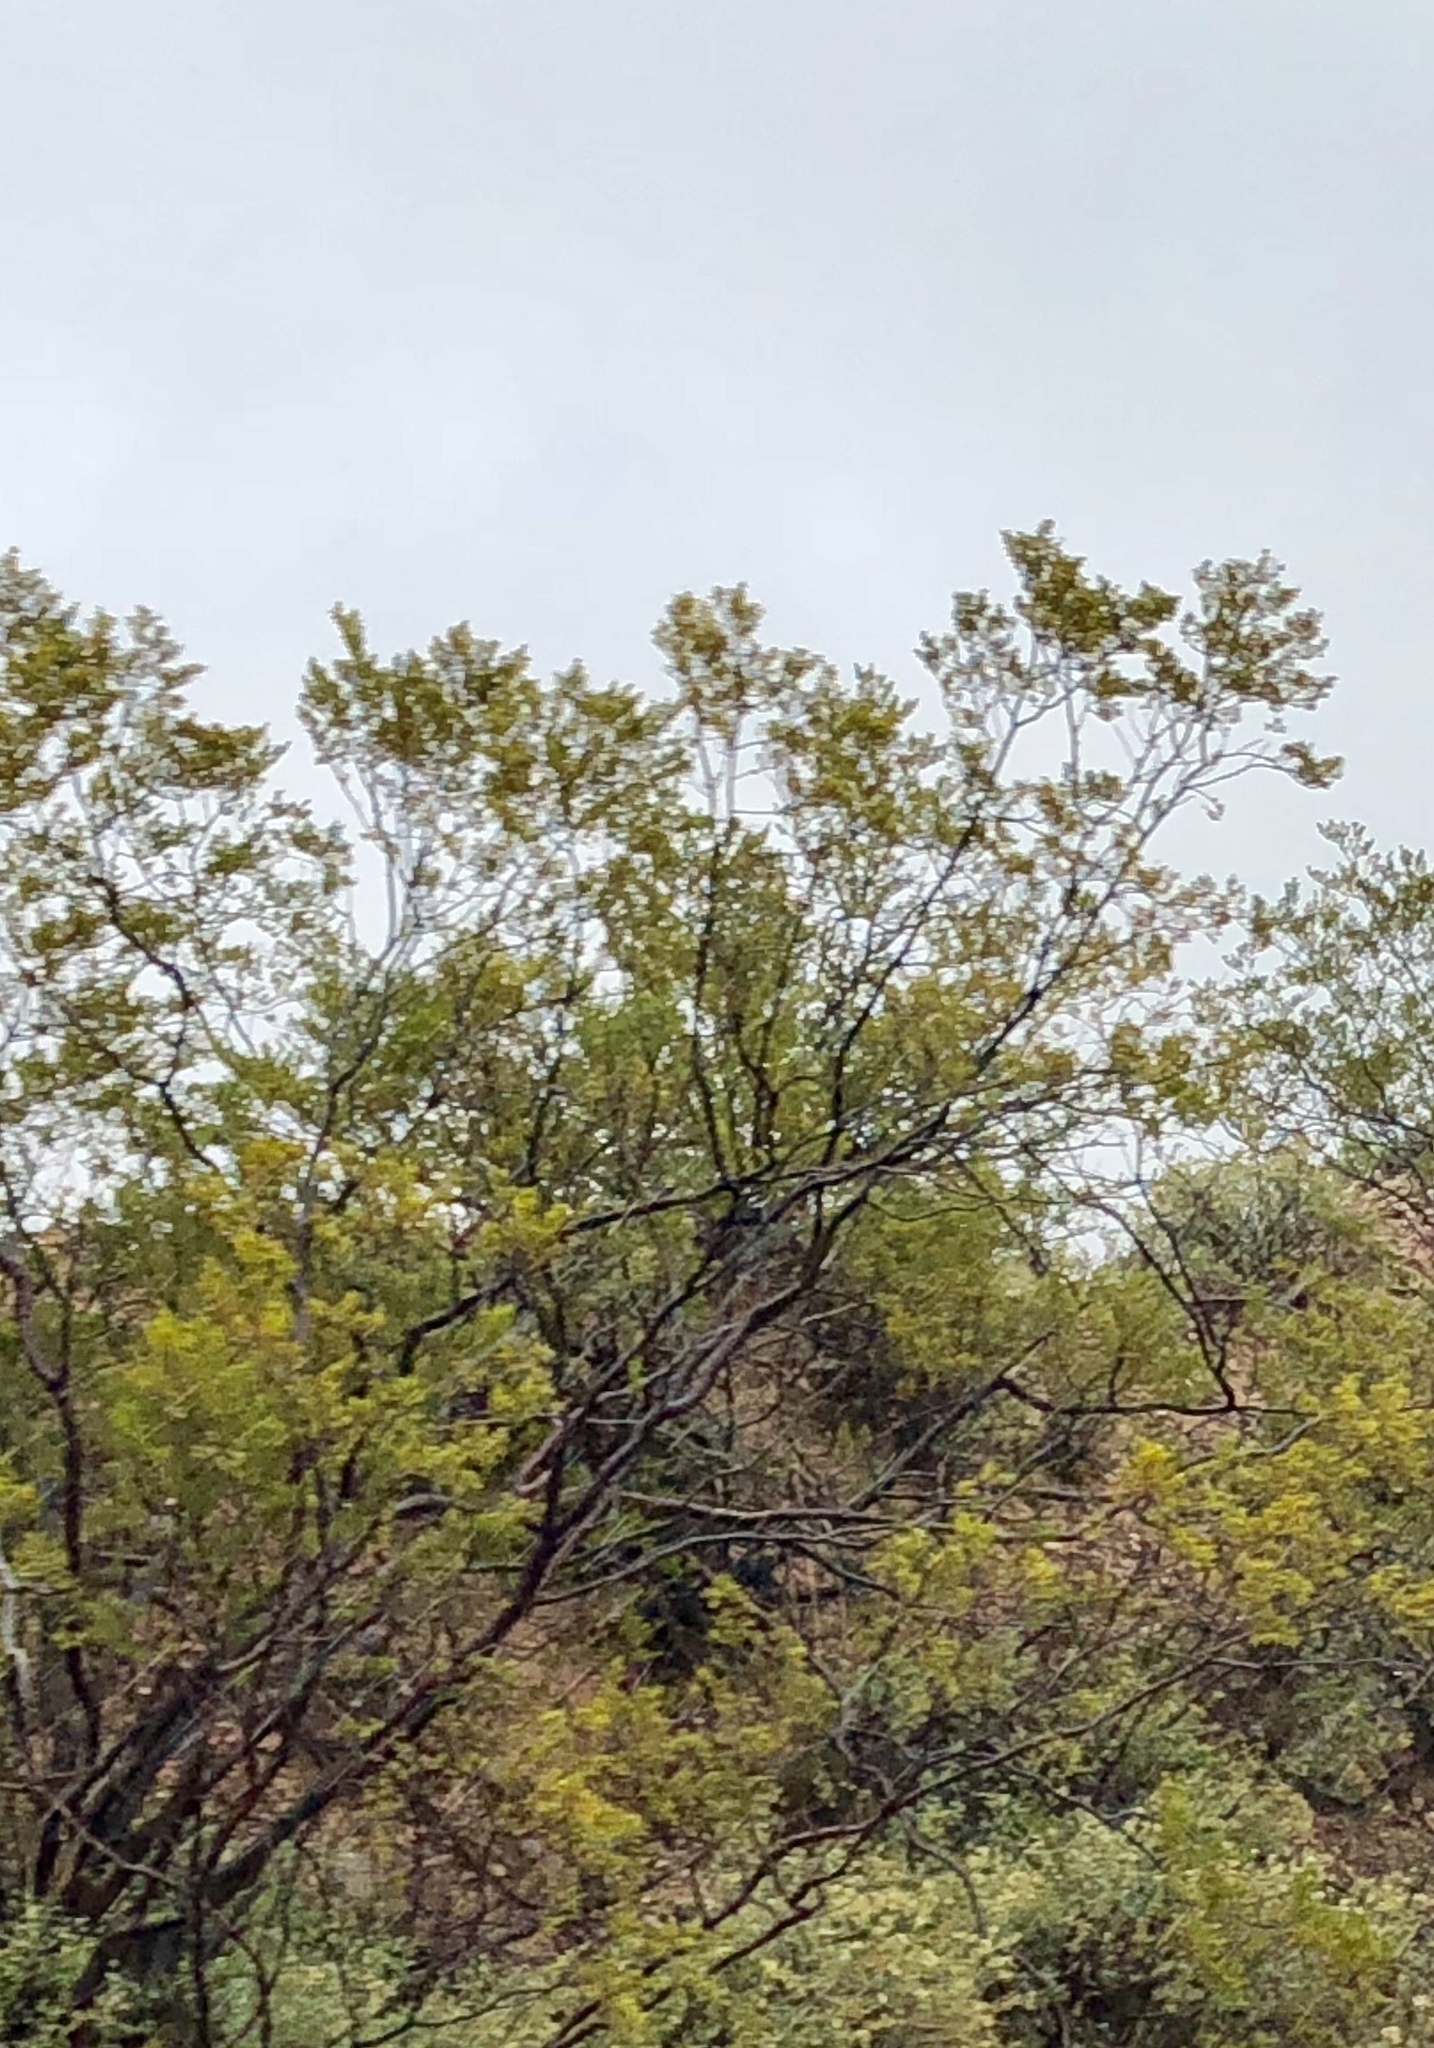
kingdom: Plantae
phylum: Tracheophyta
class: Magnoliopsida
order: Zygophyllales
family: Zygophyllaceae
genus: Larrea
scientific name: Larrea tridentata
